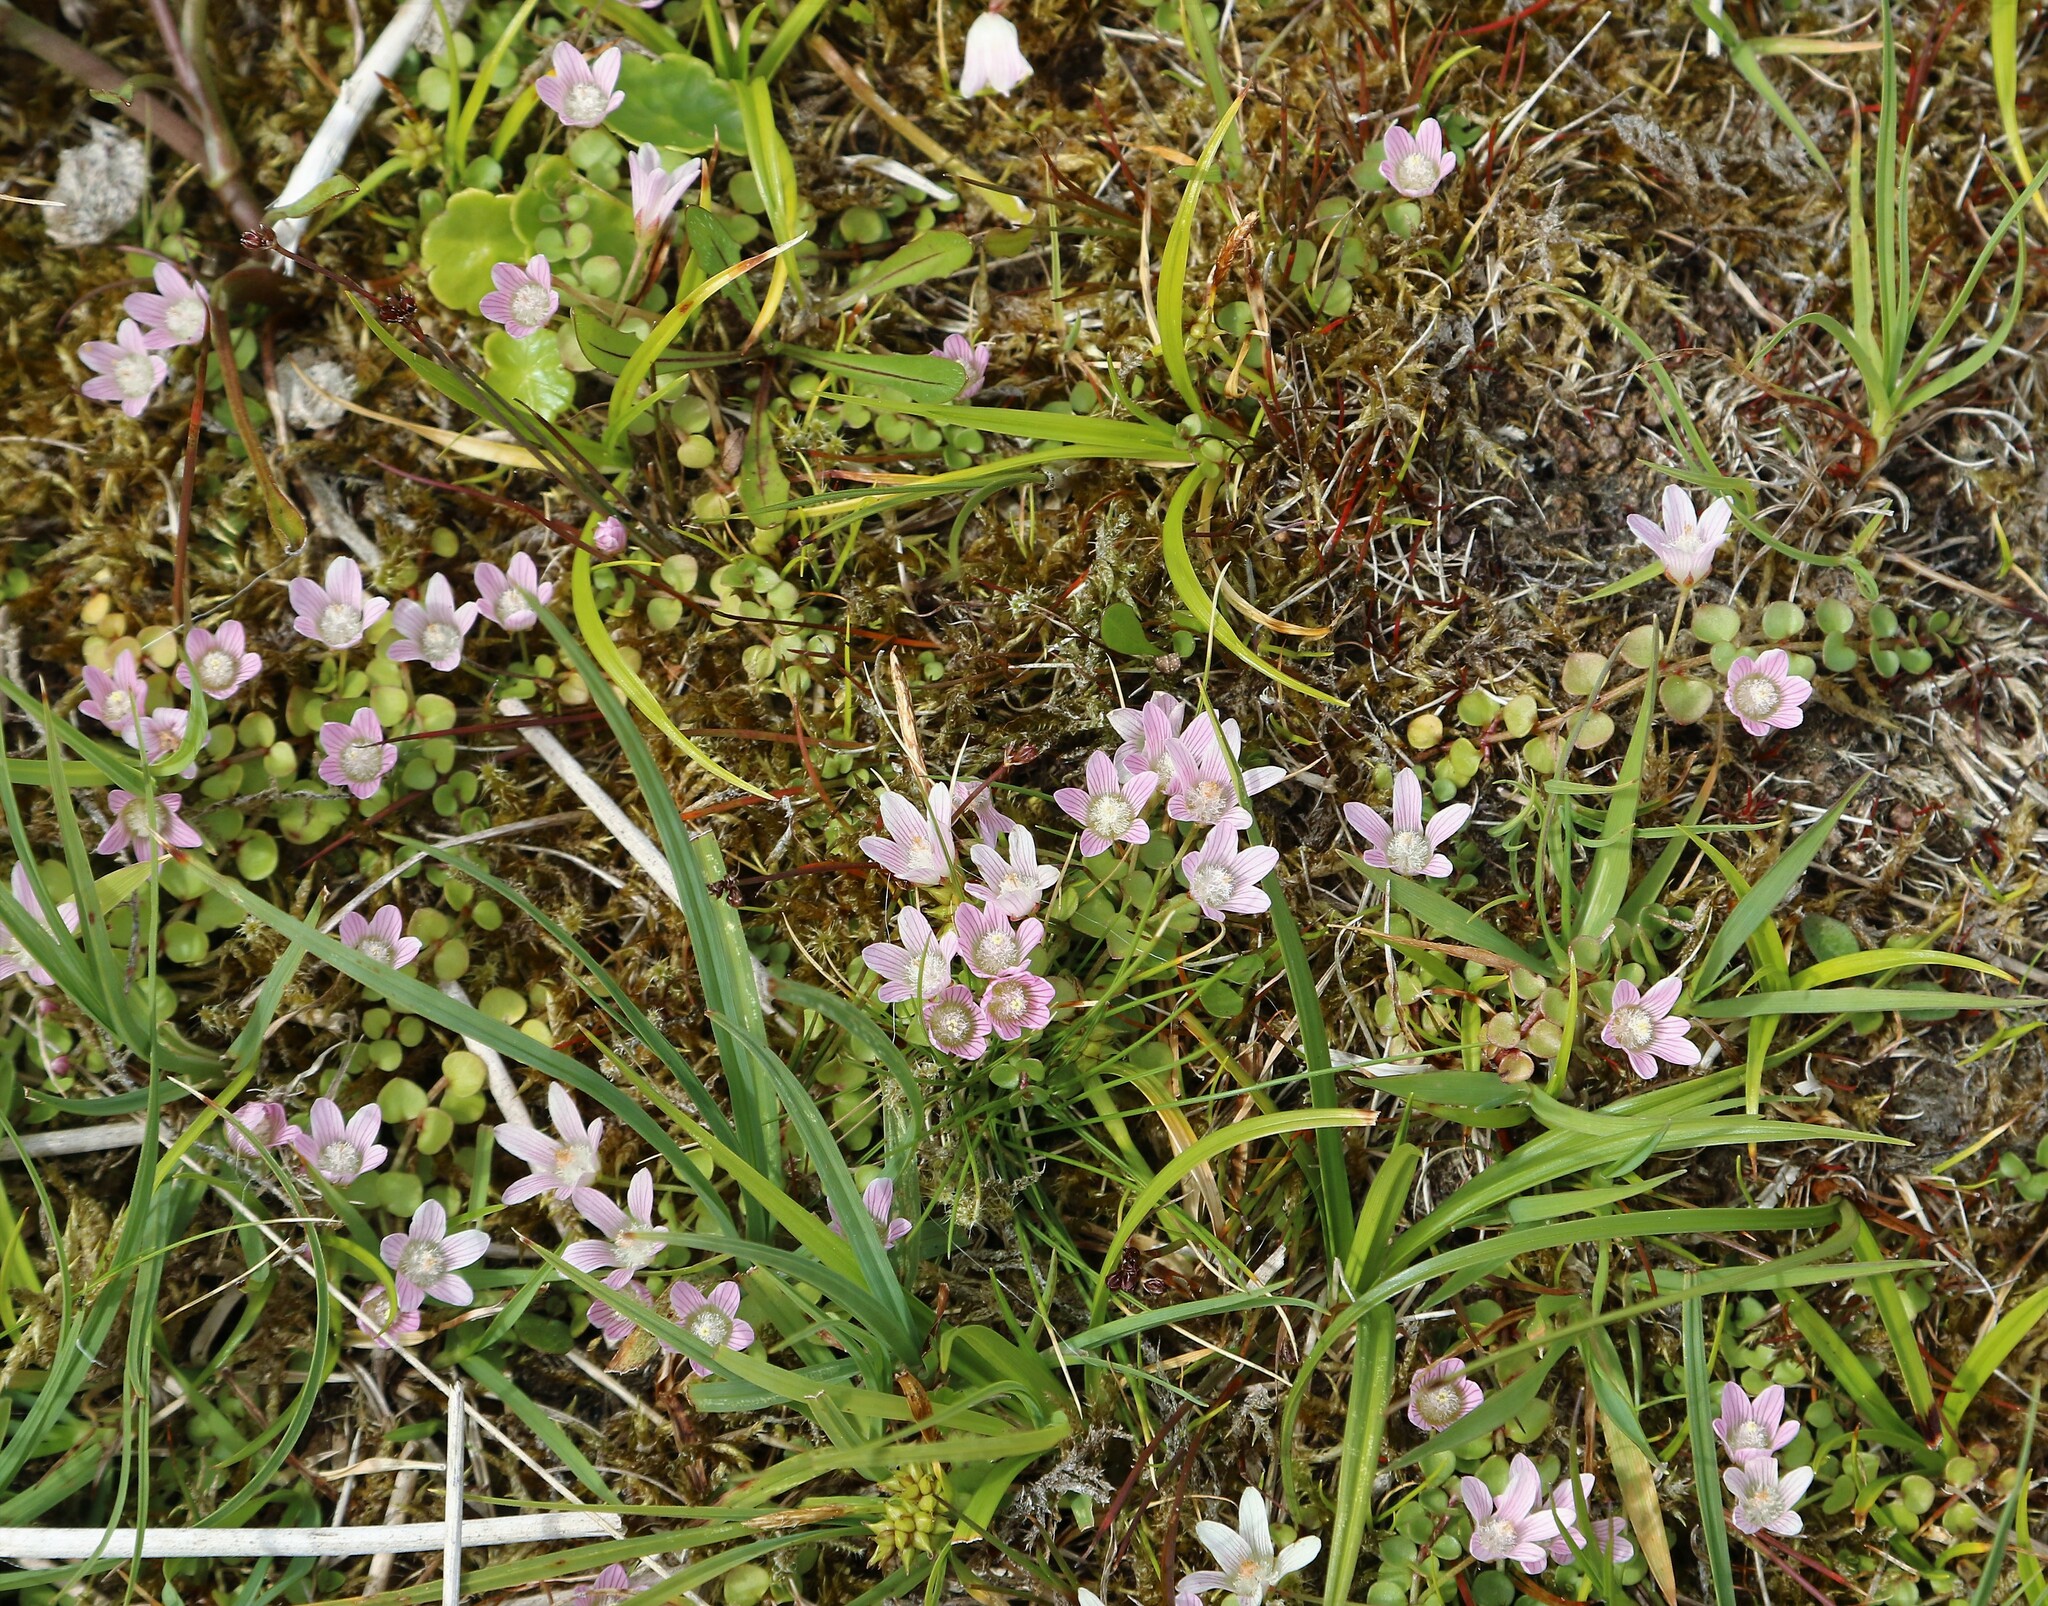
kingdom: Plantae
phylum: Tracheophyta
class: Magnoliopsida
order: Ericales
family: Primulaceae
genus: Lysimachia
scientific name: Lysimachia tenella
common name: European bog pimpernel
